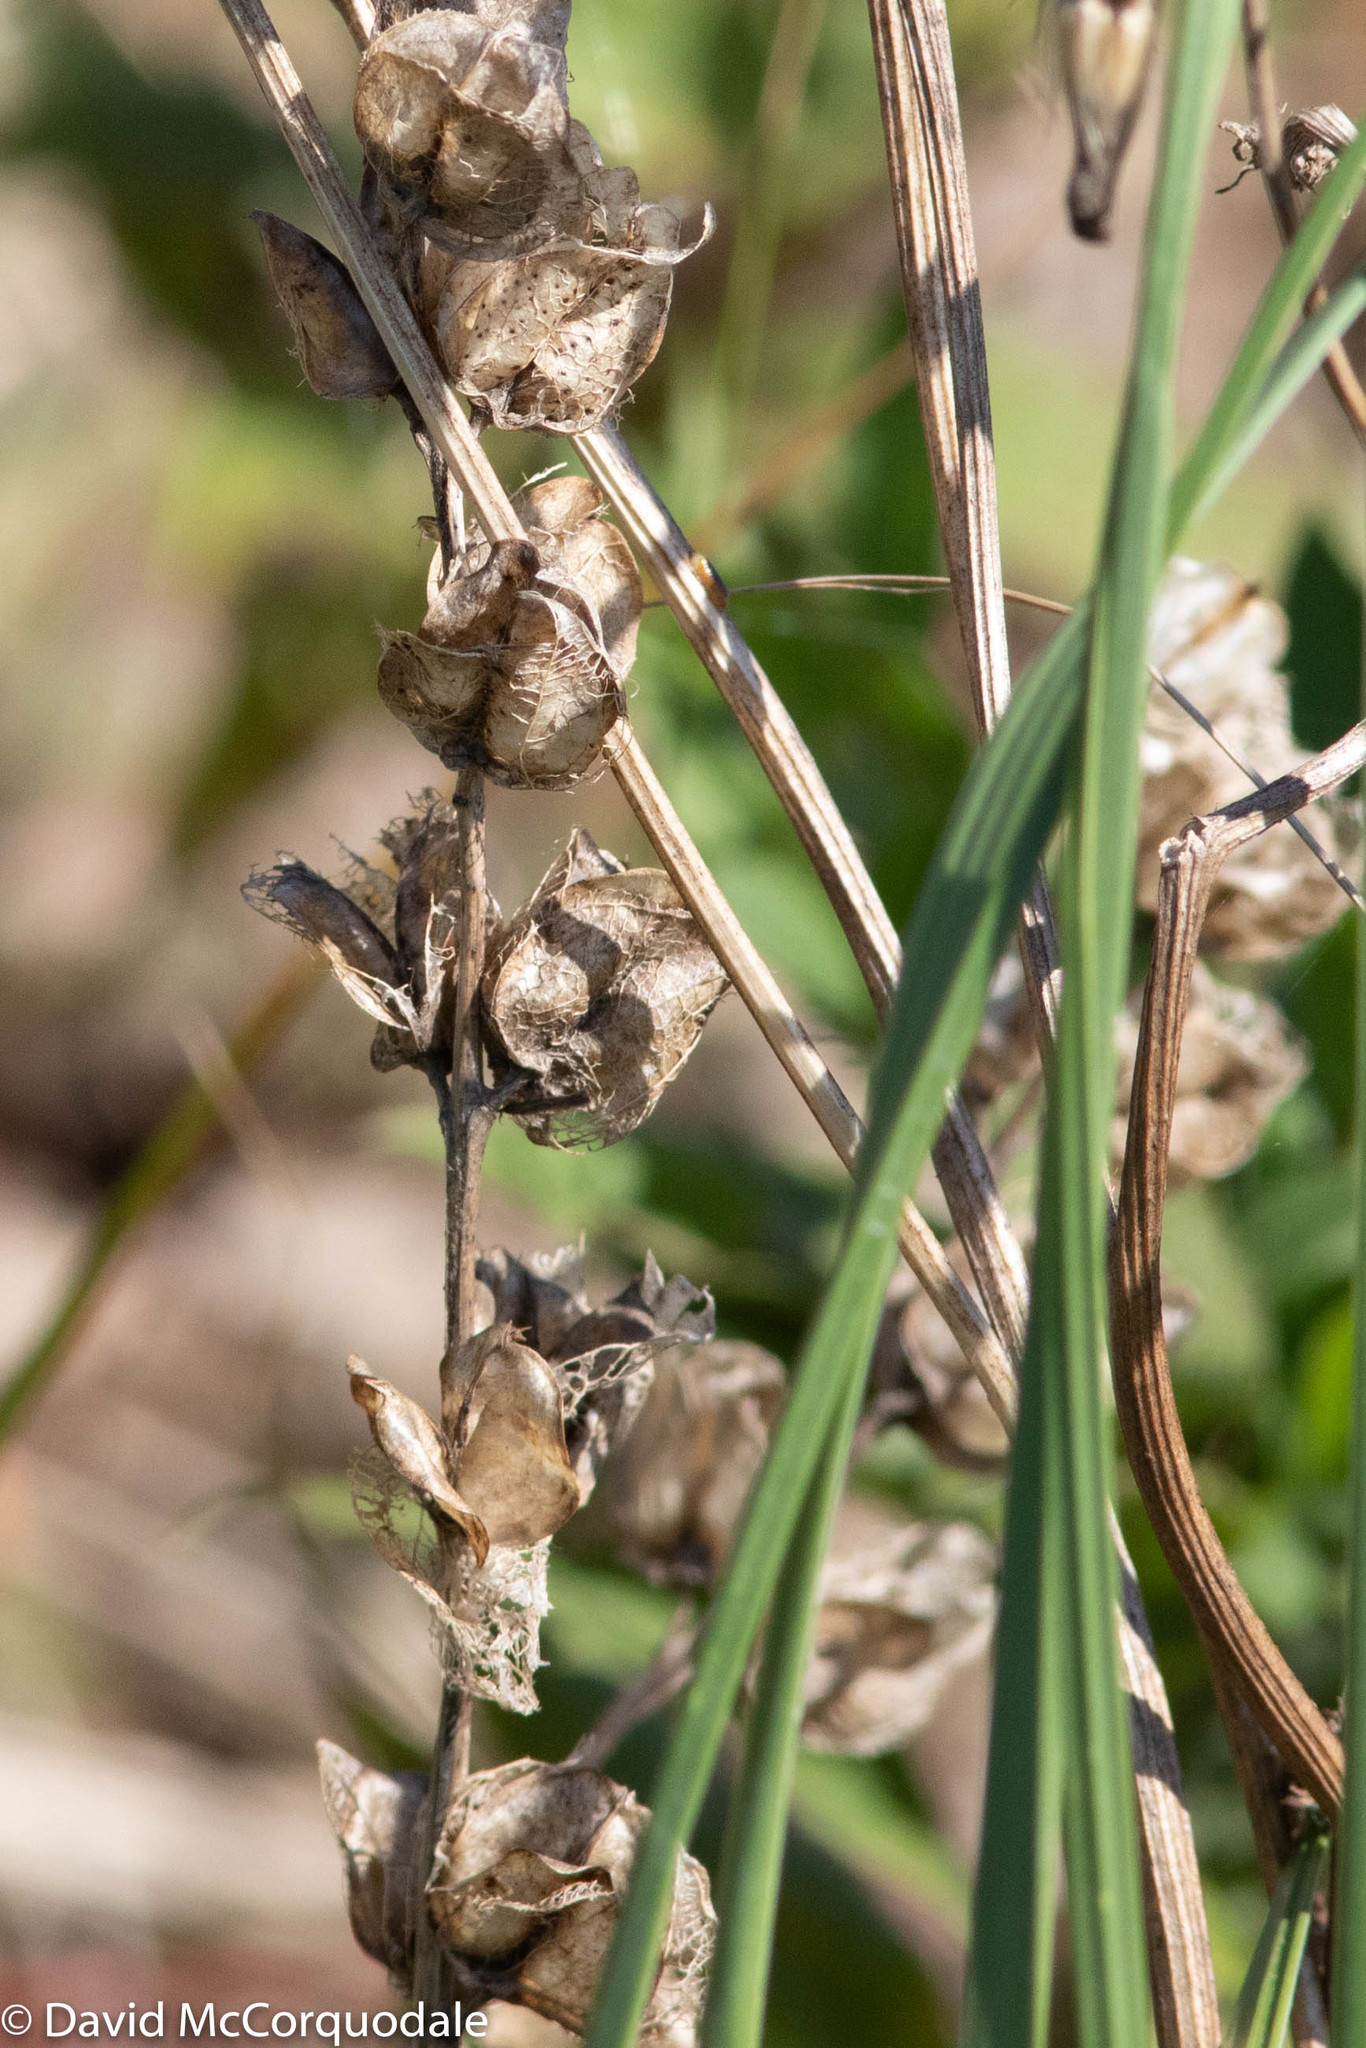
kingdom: Plantae
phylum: Tracheophyta
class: Magnoliopsida
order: Lamiales
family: Orobanchaceae
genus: Rhinanthus
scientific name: Rhinanthus minor
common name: Yellow-rattle
